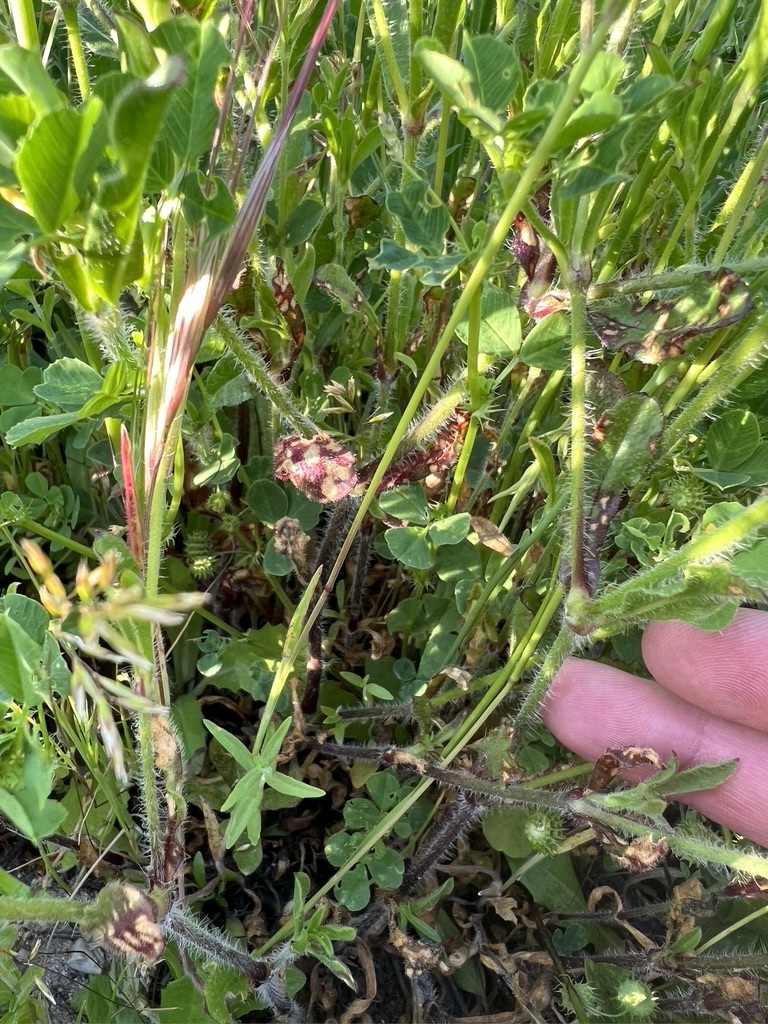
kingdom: Plantae
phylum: Tracheophyta
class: Magnoliopsida
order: Caryophyllales
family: Caryophyllaceae
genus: Silene
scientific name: Silene gallica
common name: Small-flowered catchfly
